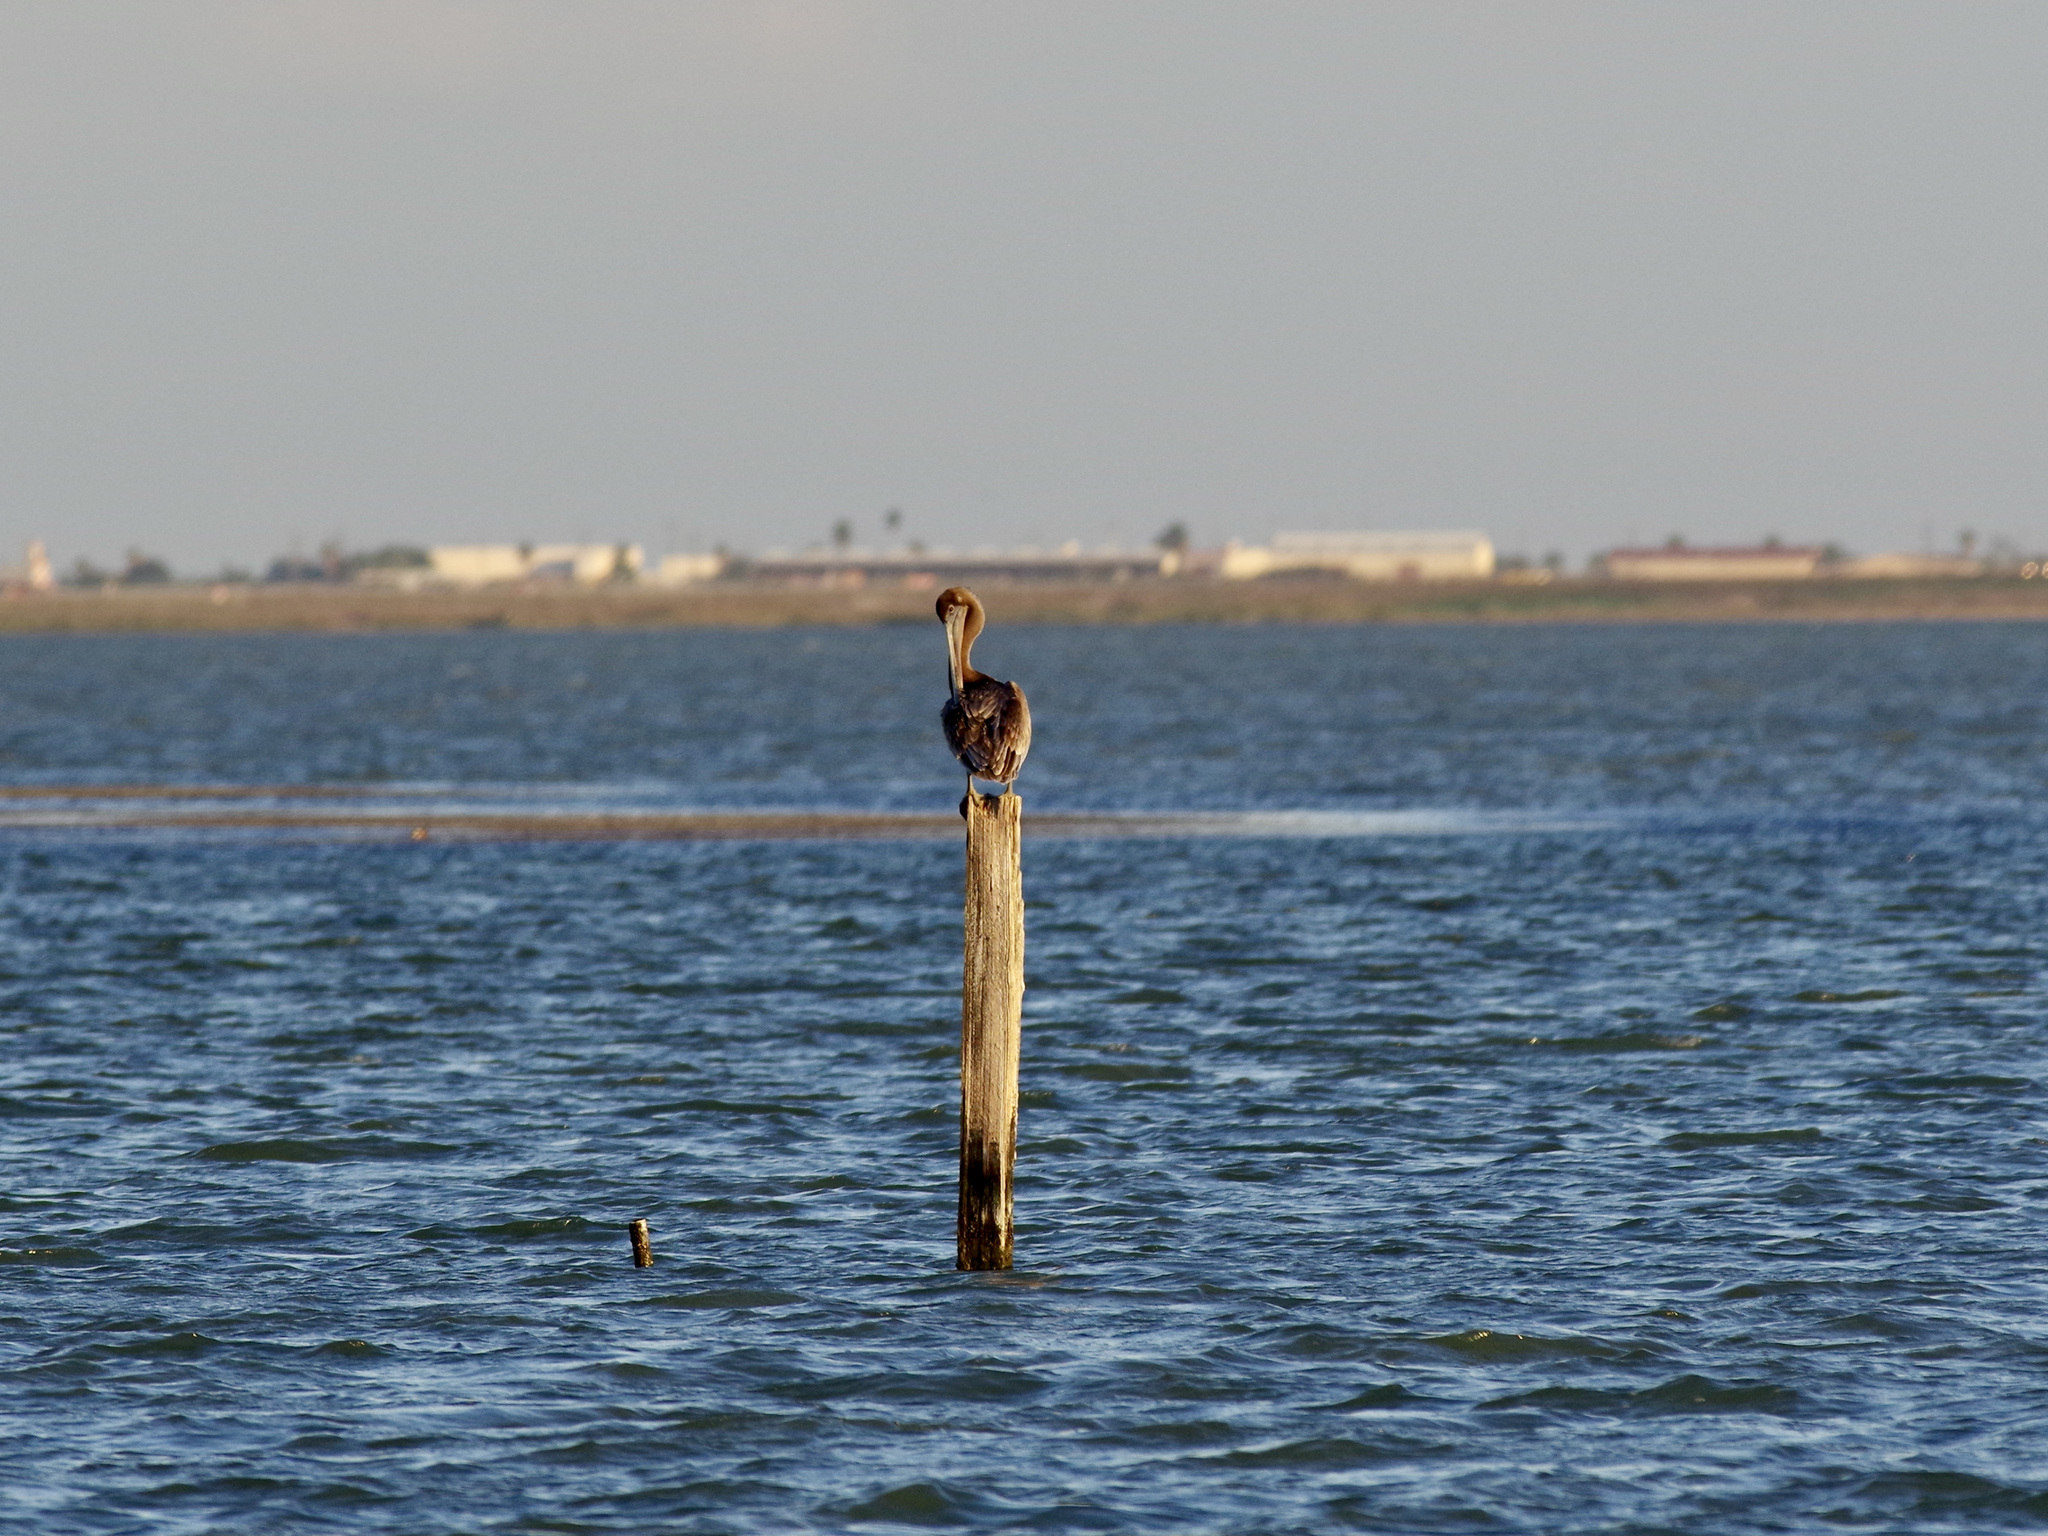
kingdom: Animalia
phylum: Chordata
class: Aves
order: Pelecaniformes
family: Pelecanidae
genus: Pelecanus
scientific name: Pelecanus occidentalis
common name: Brown pelican
